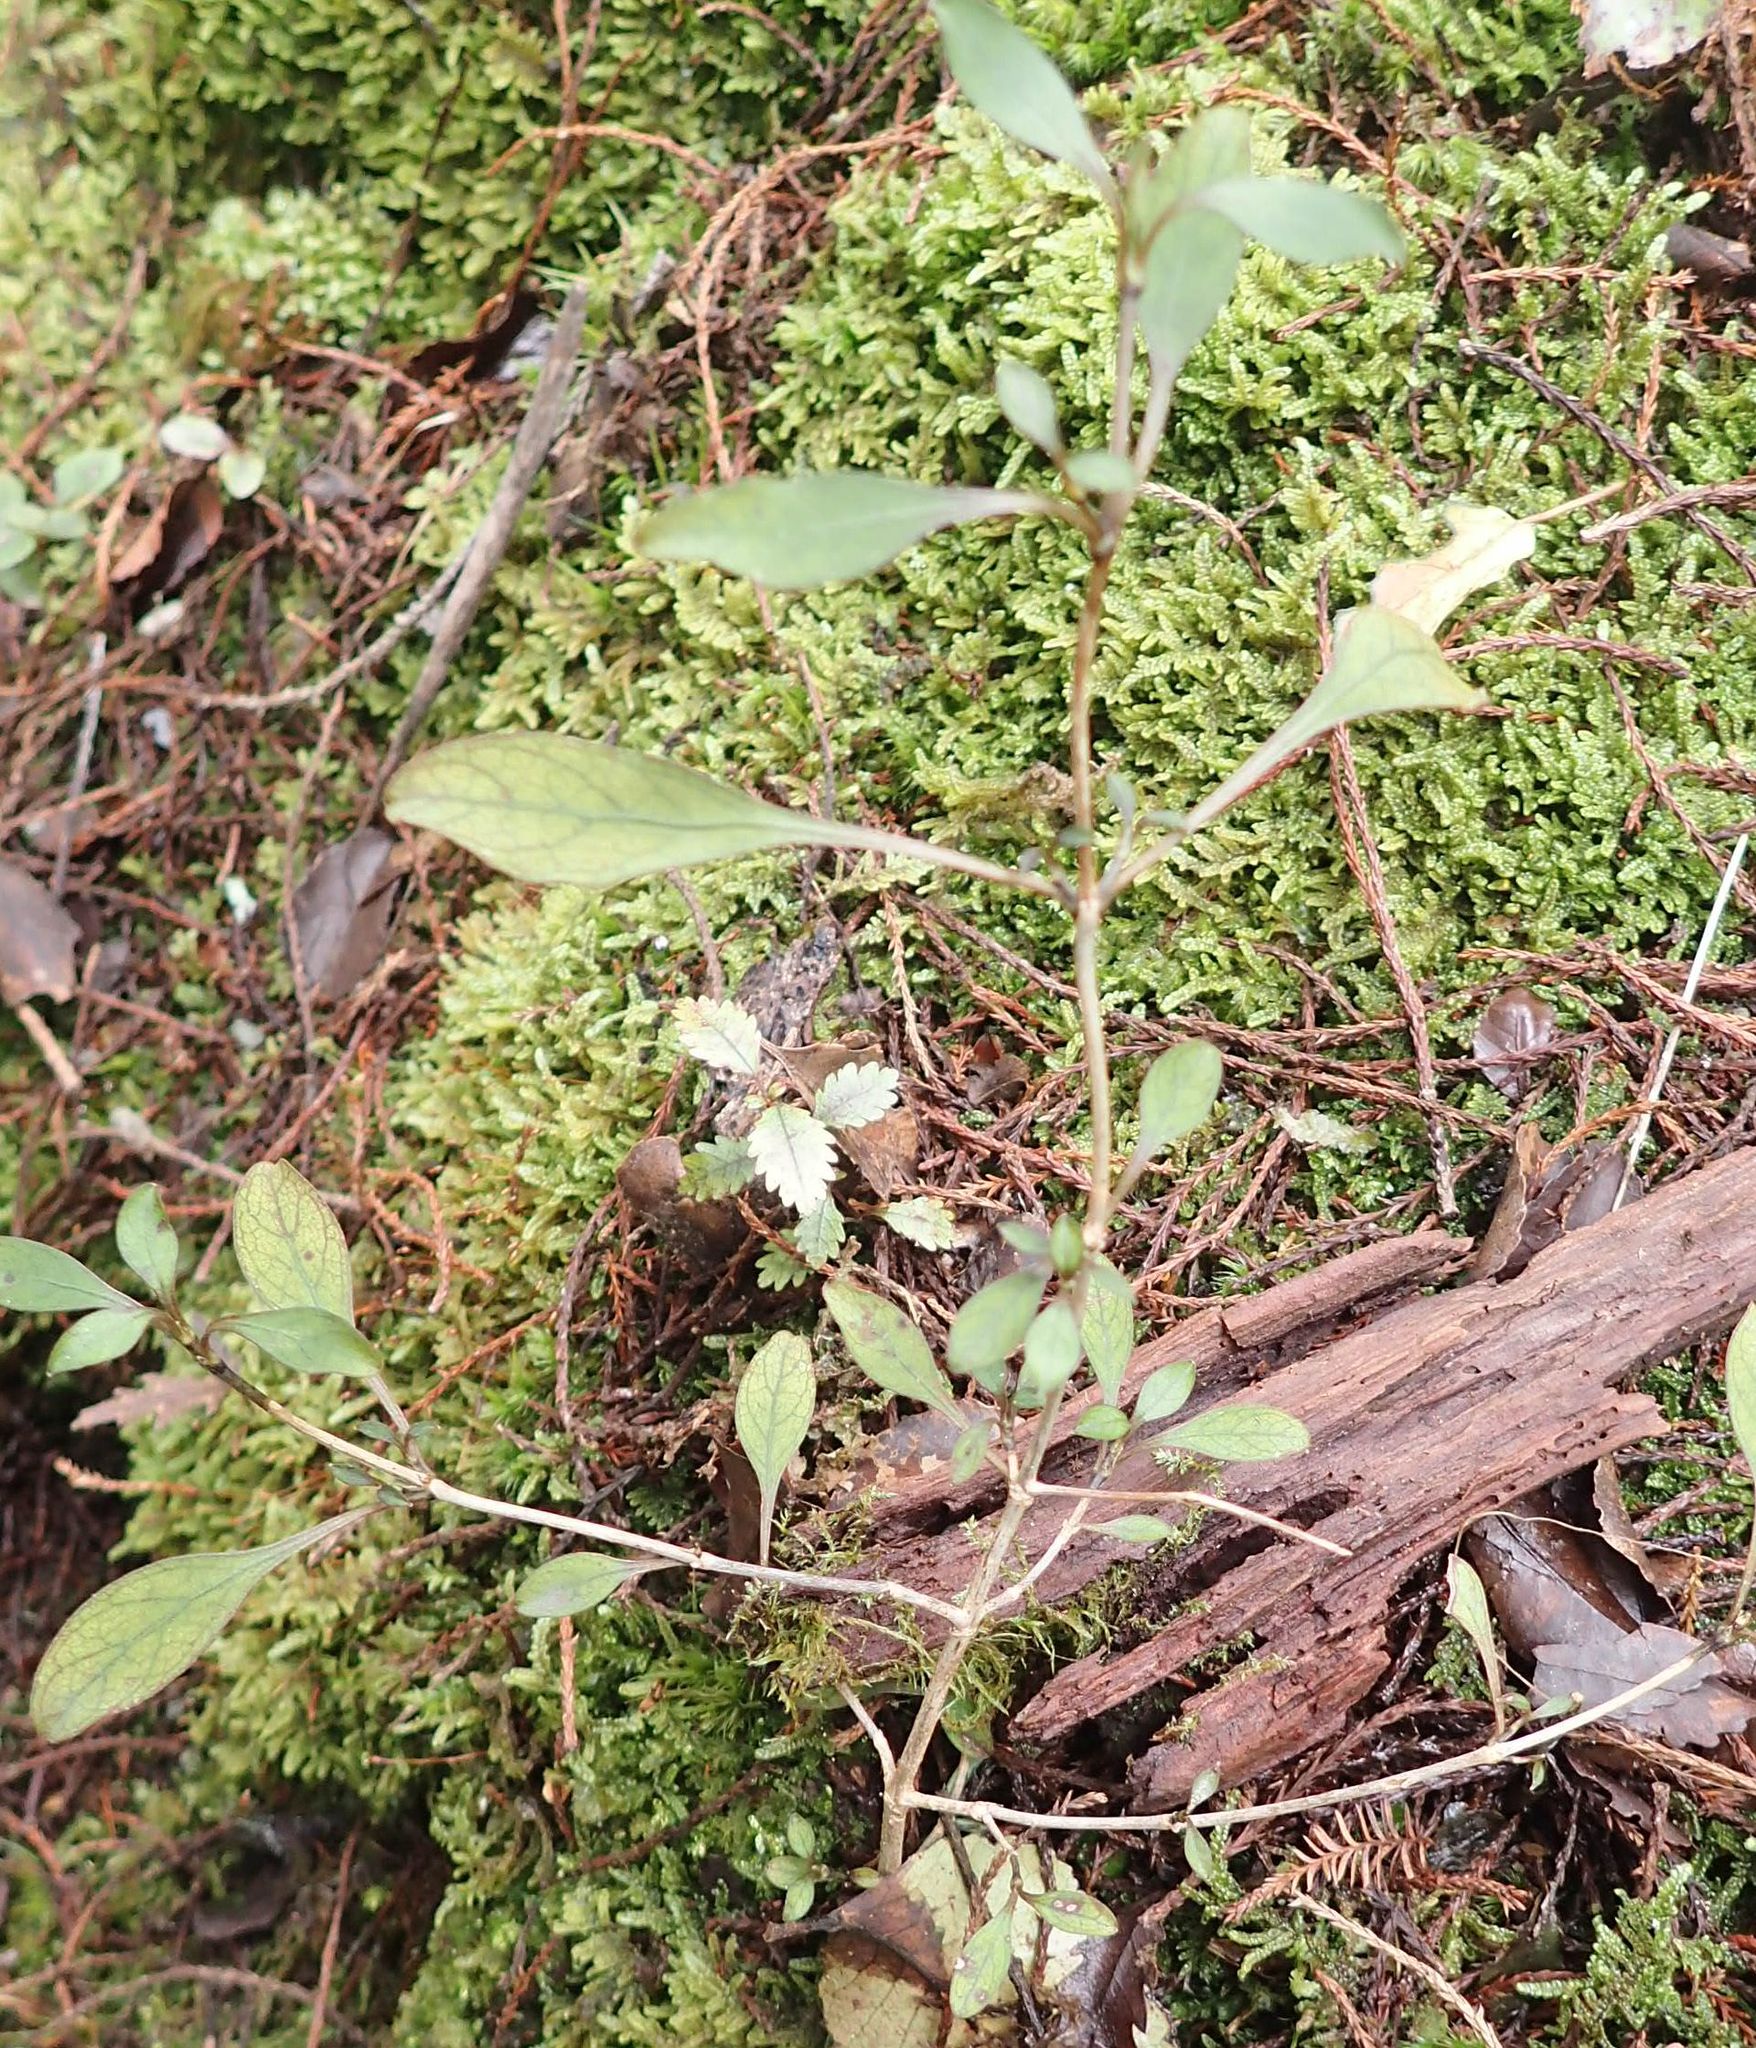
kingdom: Plantae
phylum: Tracheophyta
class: Magnoliopsida
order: Gentianales
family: Rubiaceae
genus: Coprosma
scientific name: Coprosma foetidissima
